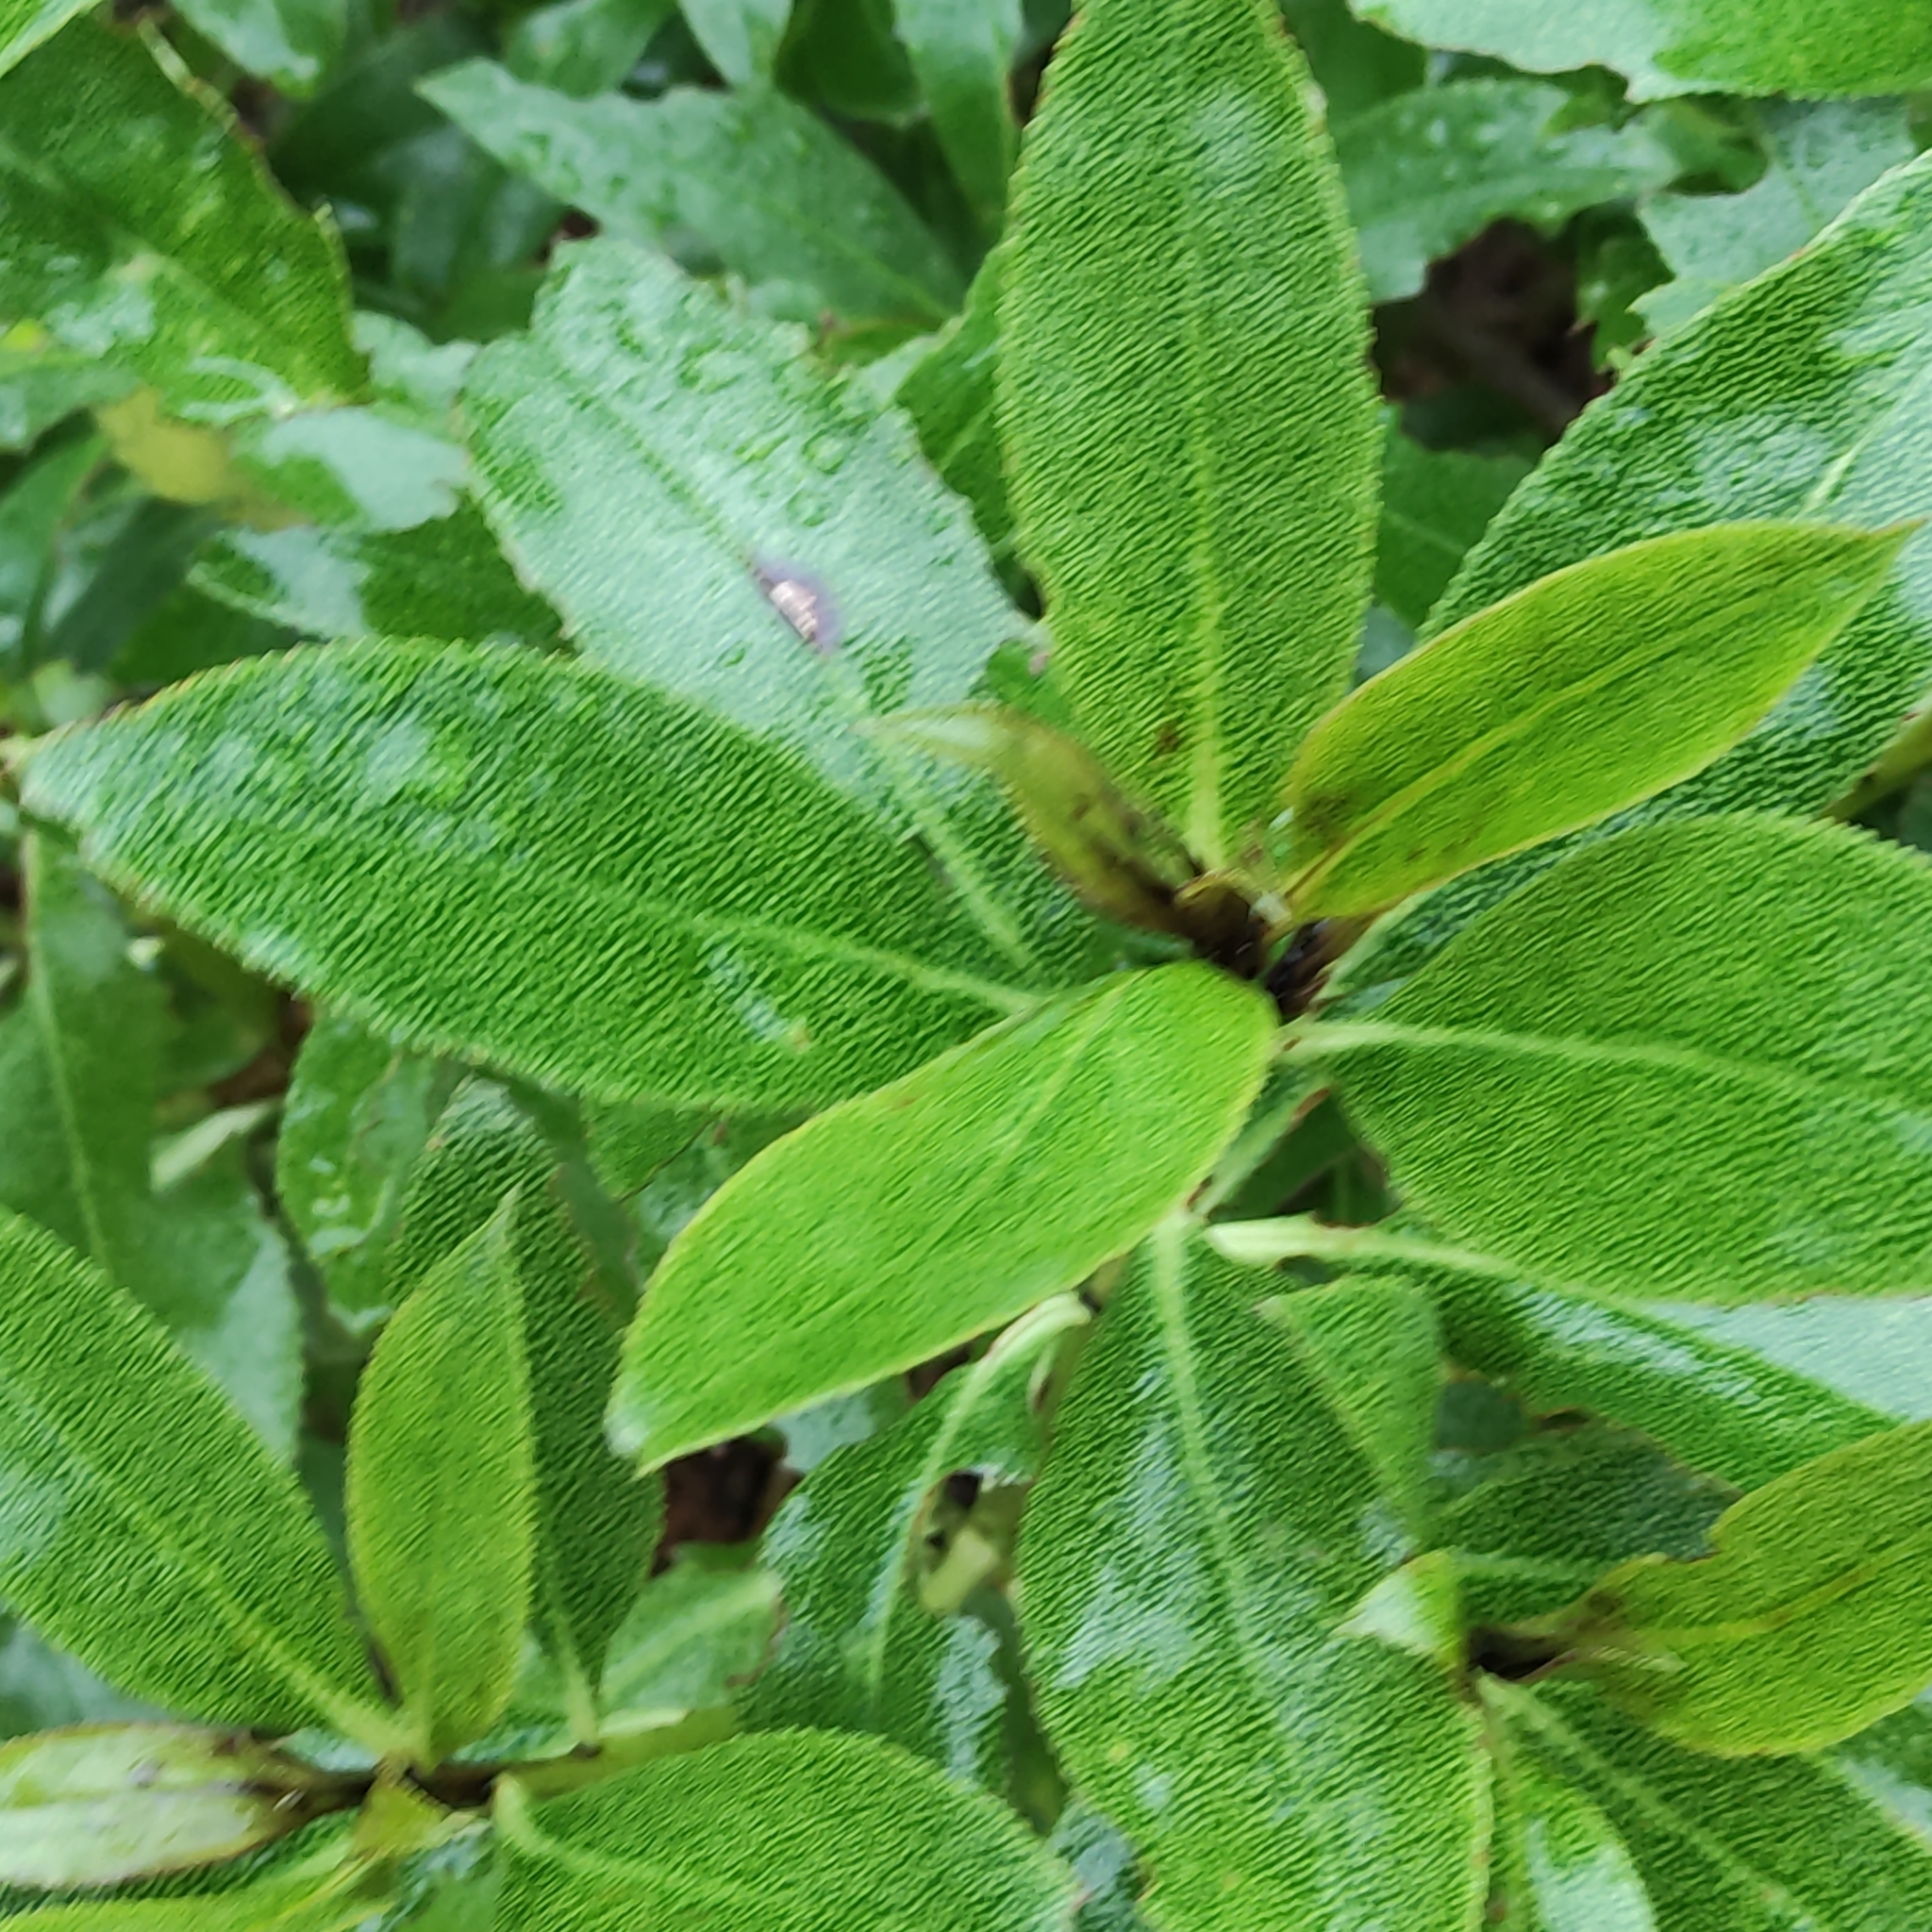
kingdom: Plantae
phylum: Tracheophyta
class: Magnoliopsida
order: Lamiales
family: Scrophulariaceae
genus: Myoporum
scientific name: Myoporum laetum
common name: Ngaio tree
